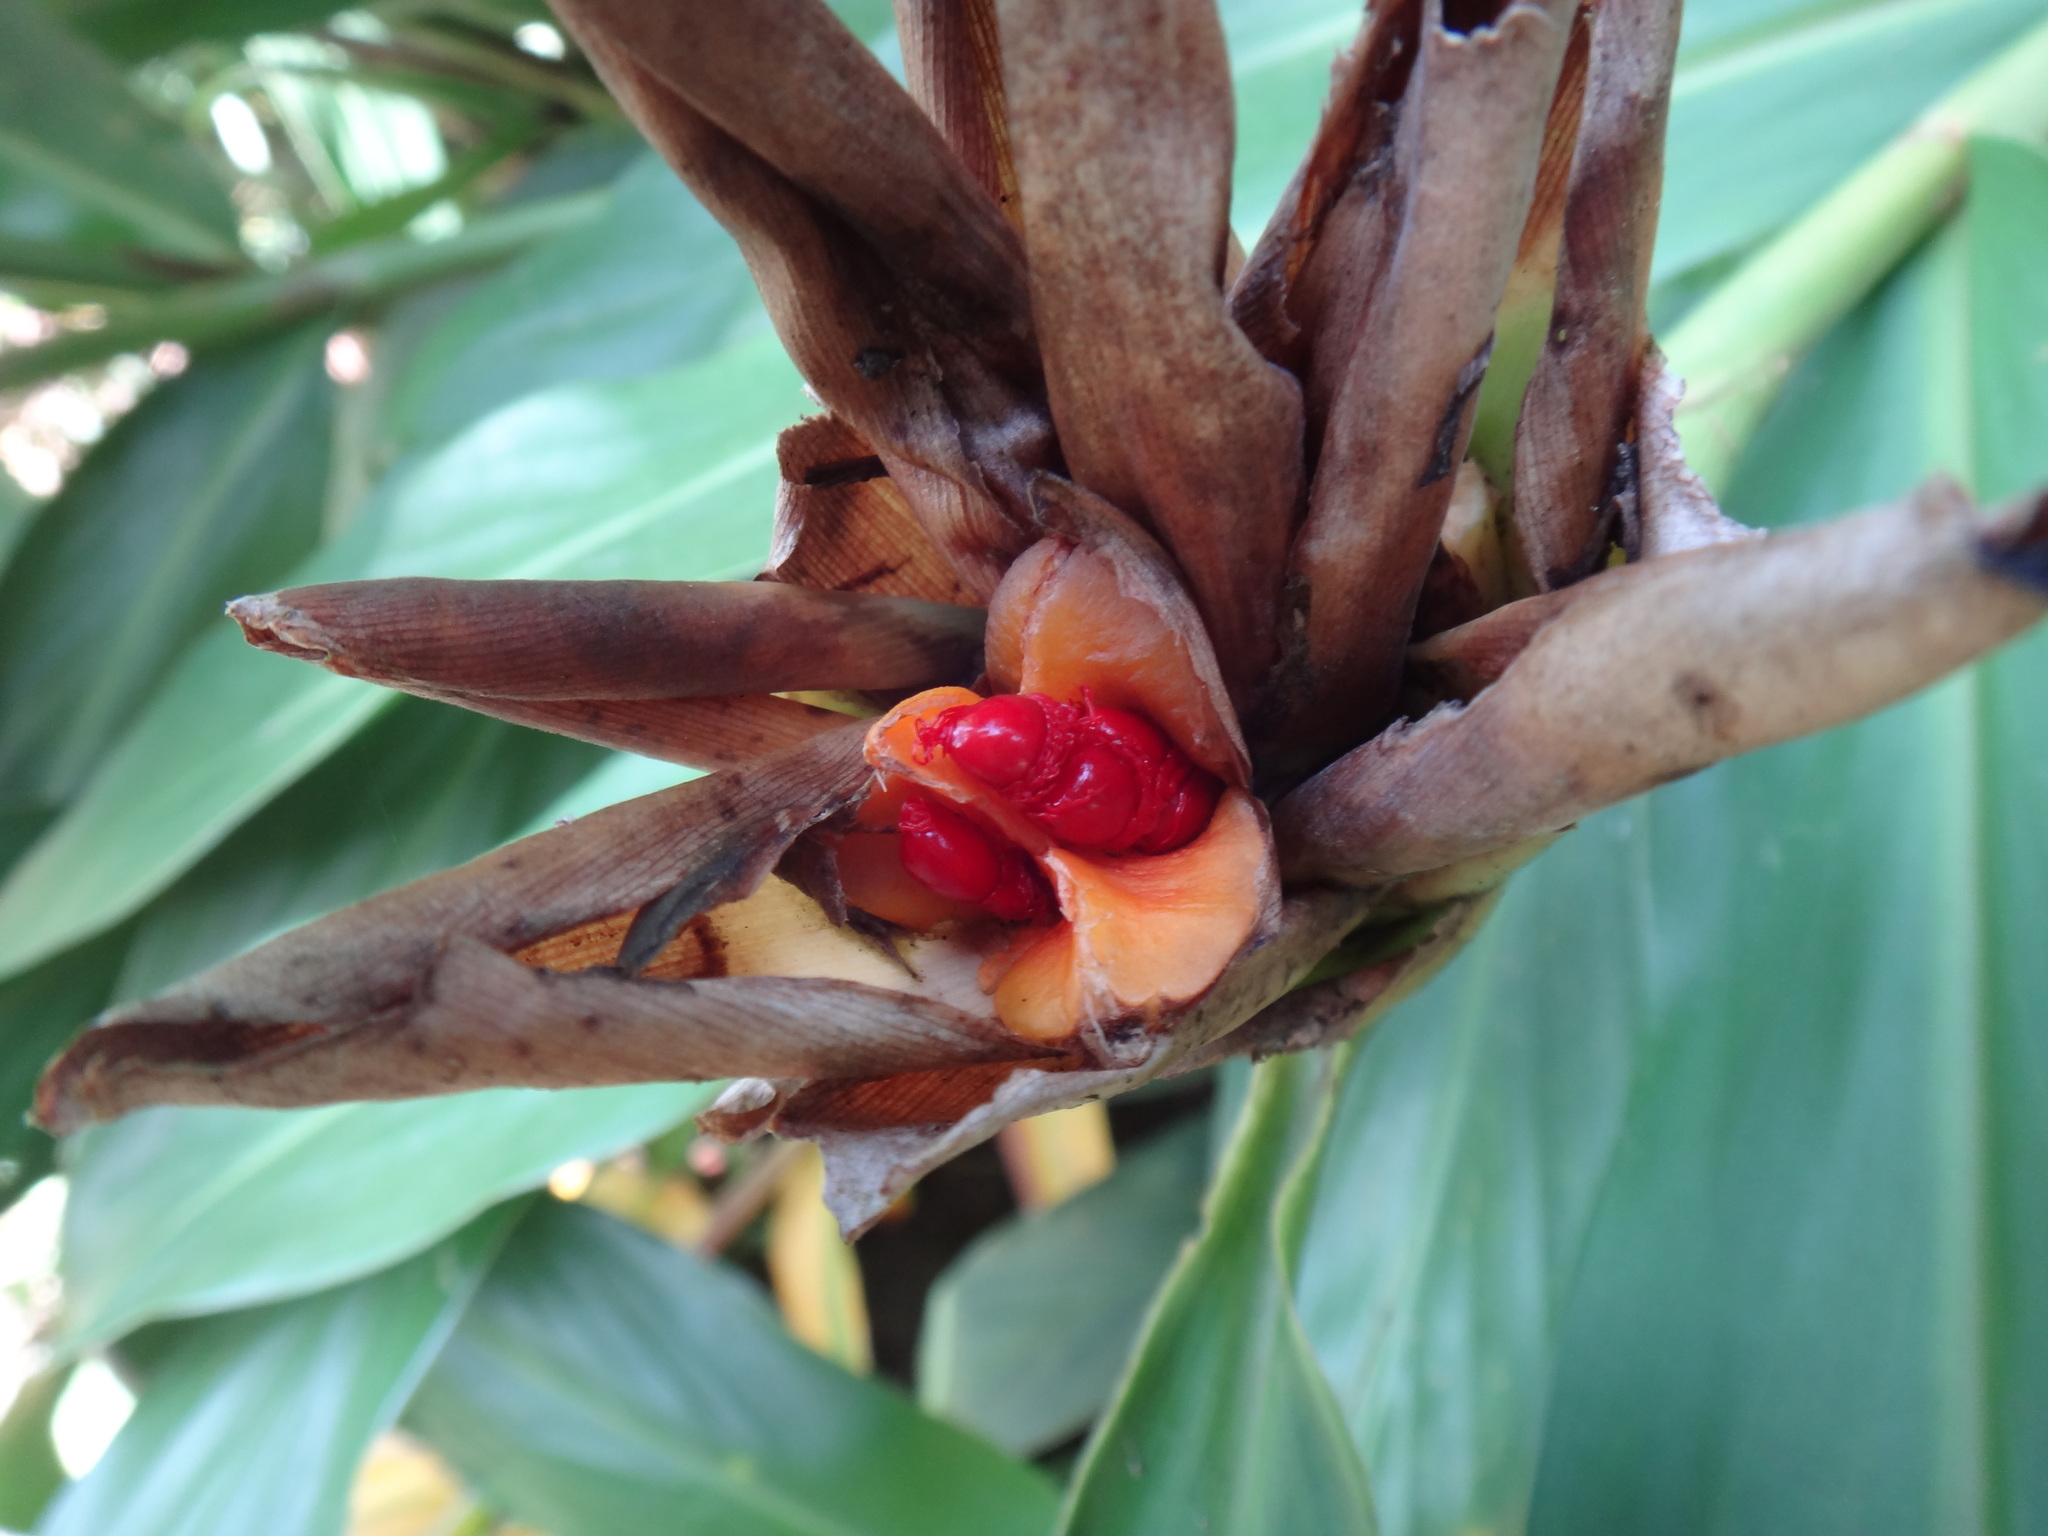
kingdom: Plantae
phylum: Tracheophyta
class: Liliopsida
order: Zingiberales
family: Zingiberaceae
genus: Hedychium
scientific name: Hedychium coronarium
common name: White garland-lily
